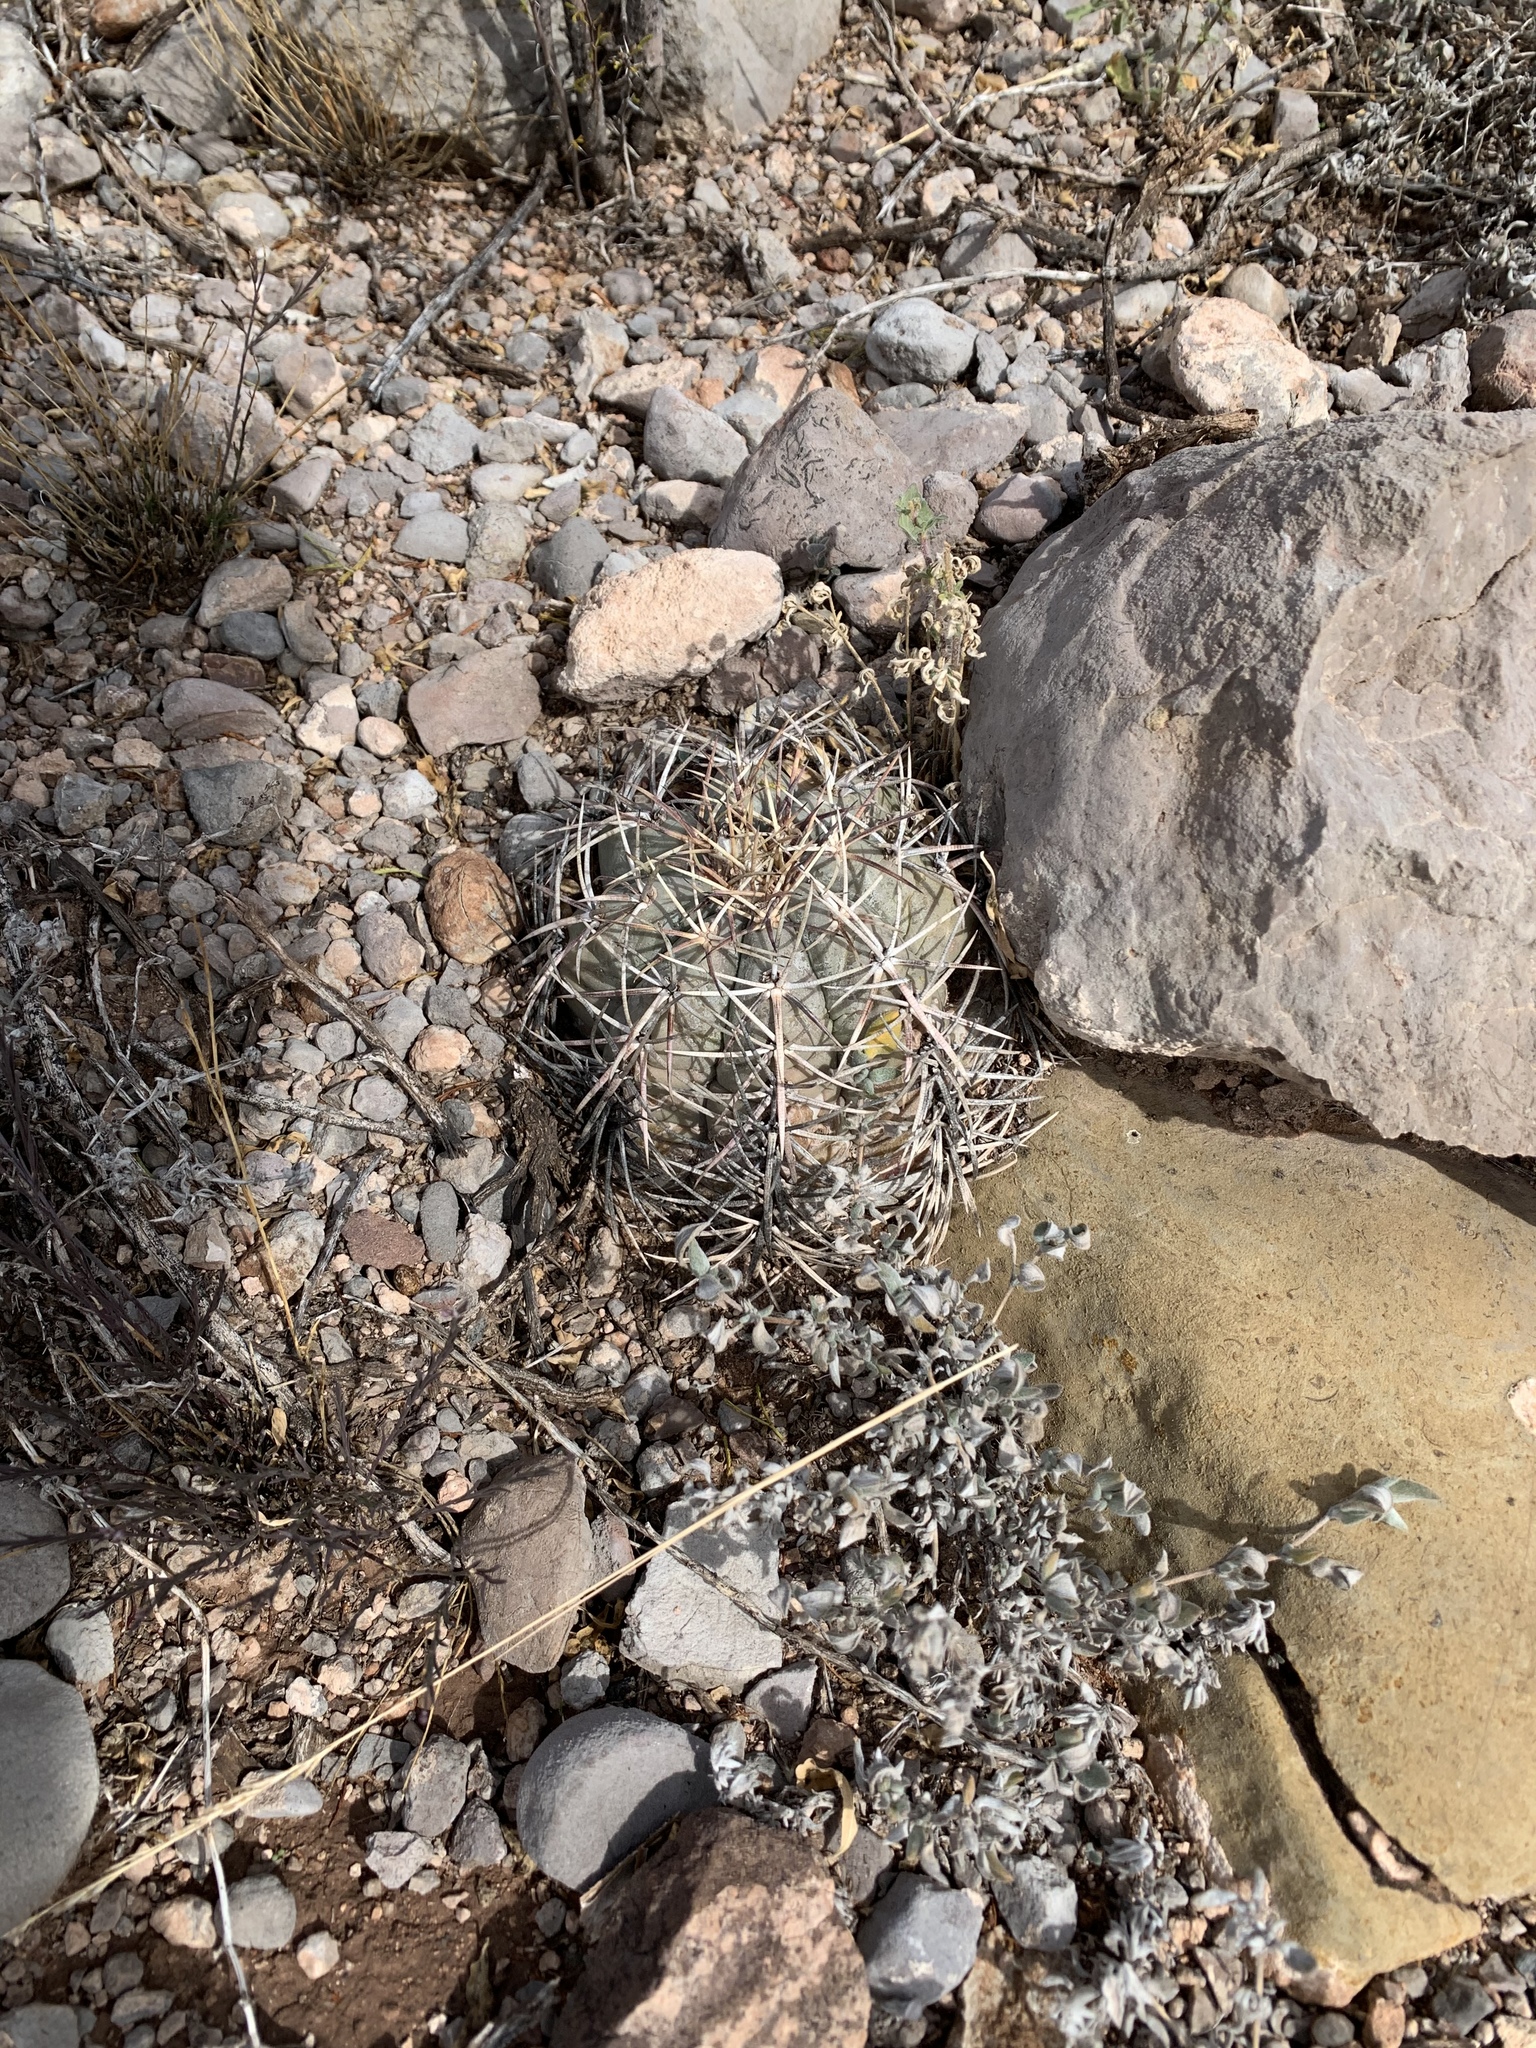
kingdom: Plantae
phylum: Tracheophyta
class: Magnoliopsida
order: Caryophyllales
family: Cactaceae
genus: Echinocactus
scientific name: Echinocactus horizonthalonius
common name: Devilshead
